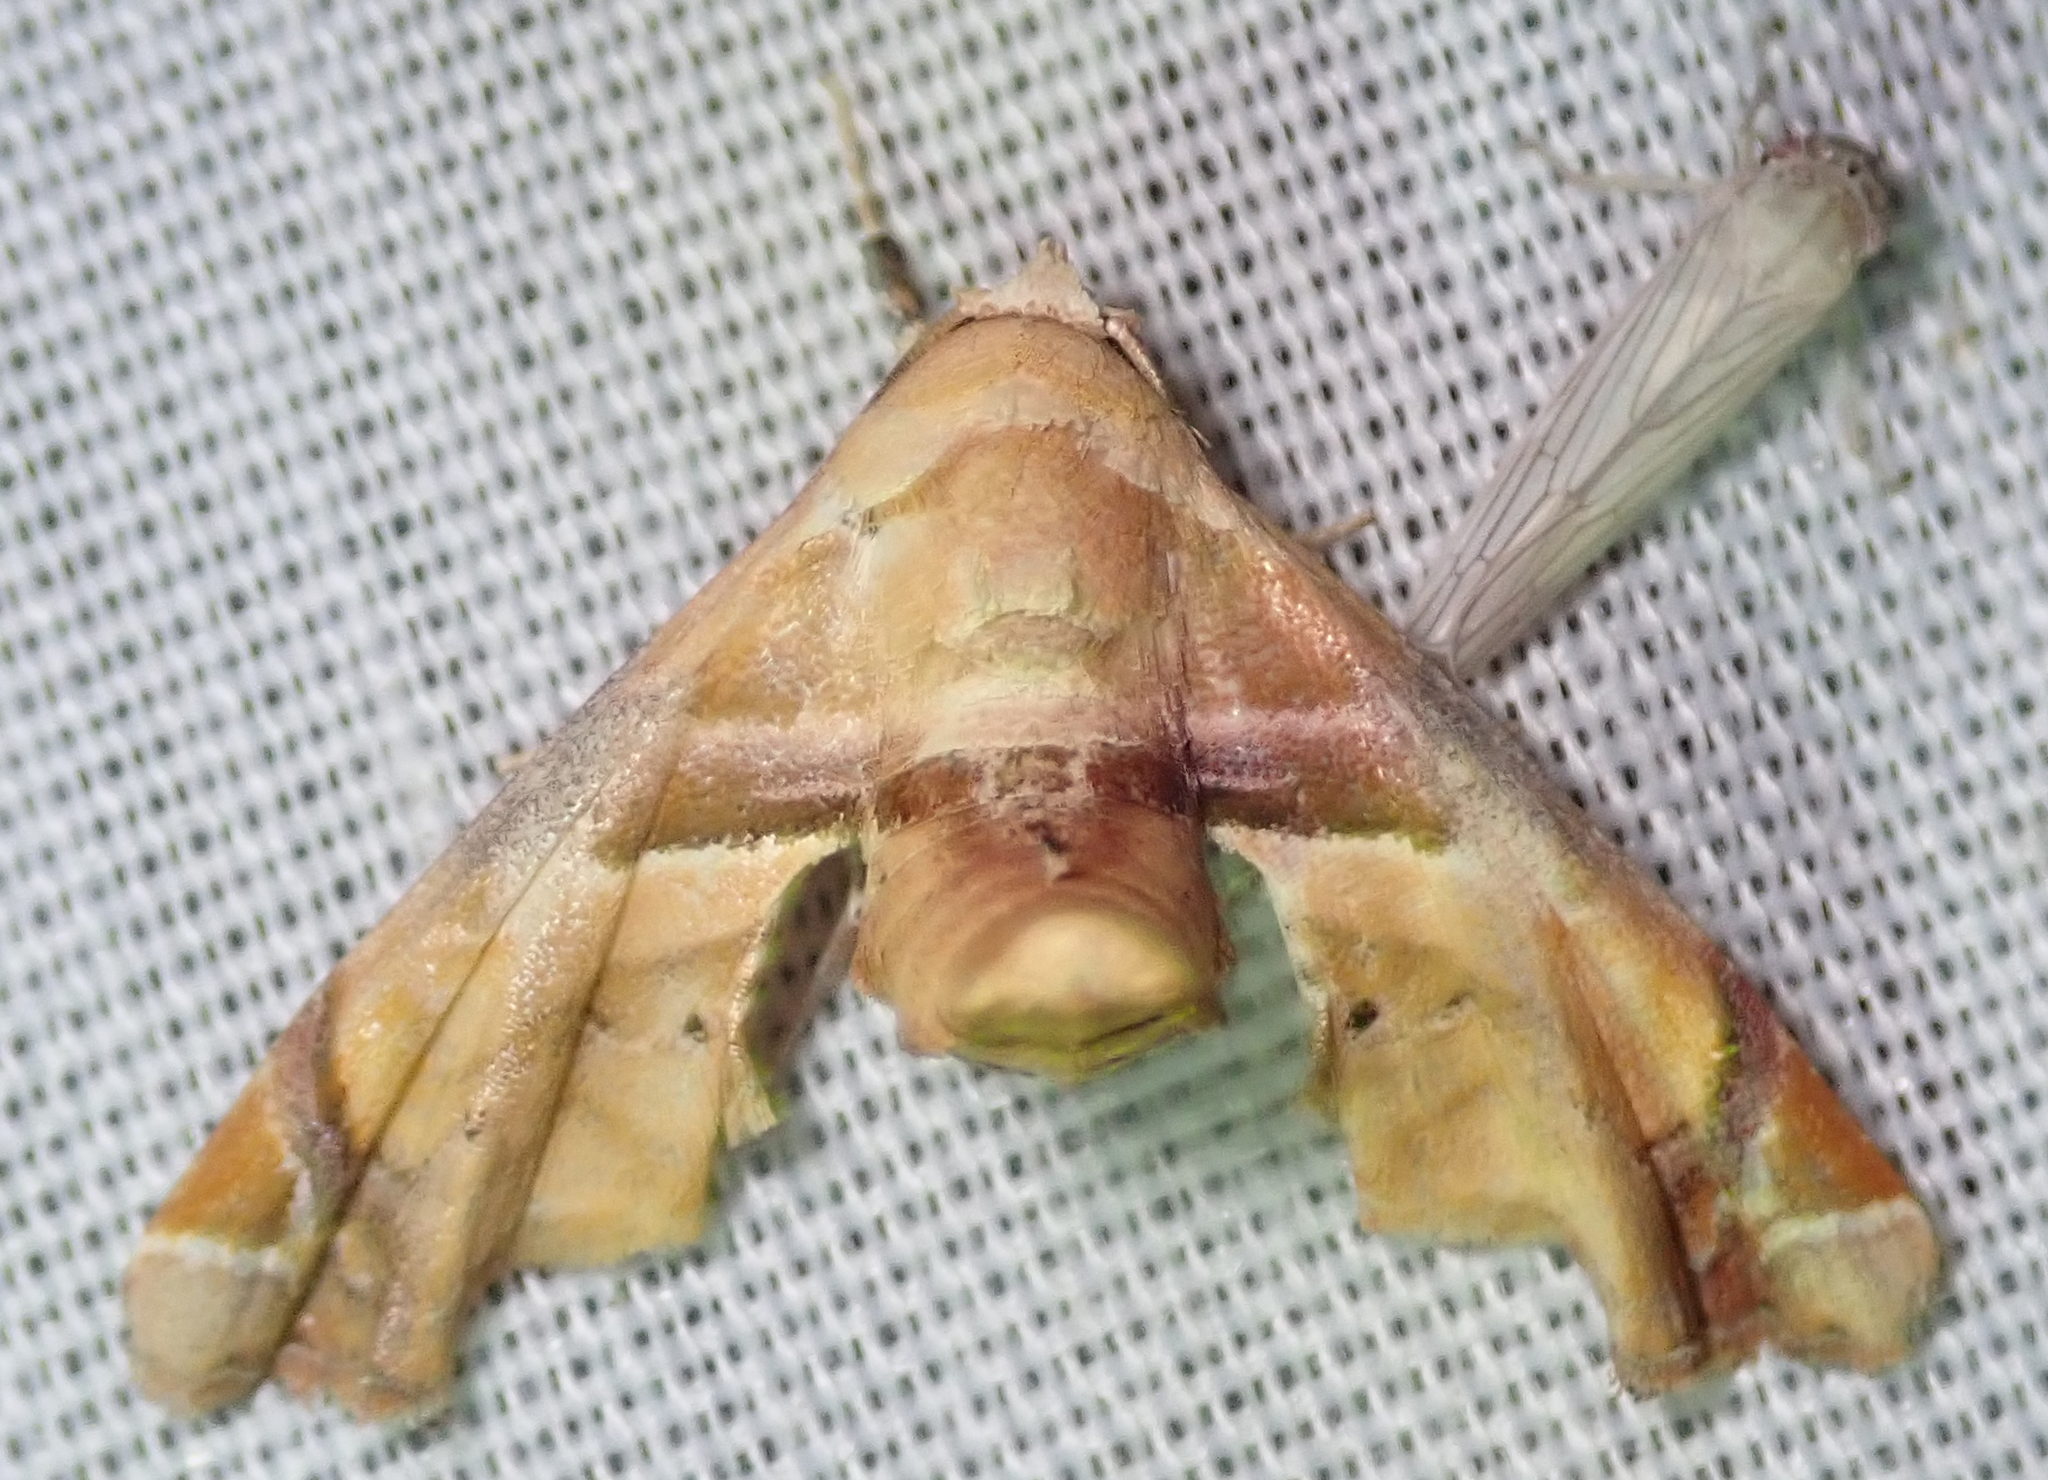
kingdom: Animalia
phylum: Arthropoda
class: Insecta
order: Lepidoptera
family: Euteliidae
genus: Eutelia
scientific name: Eutelia gilvicolor
